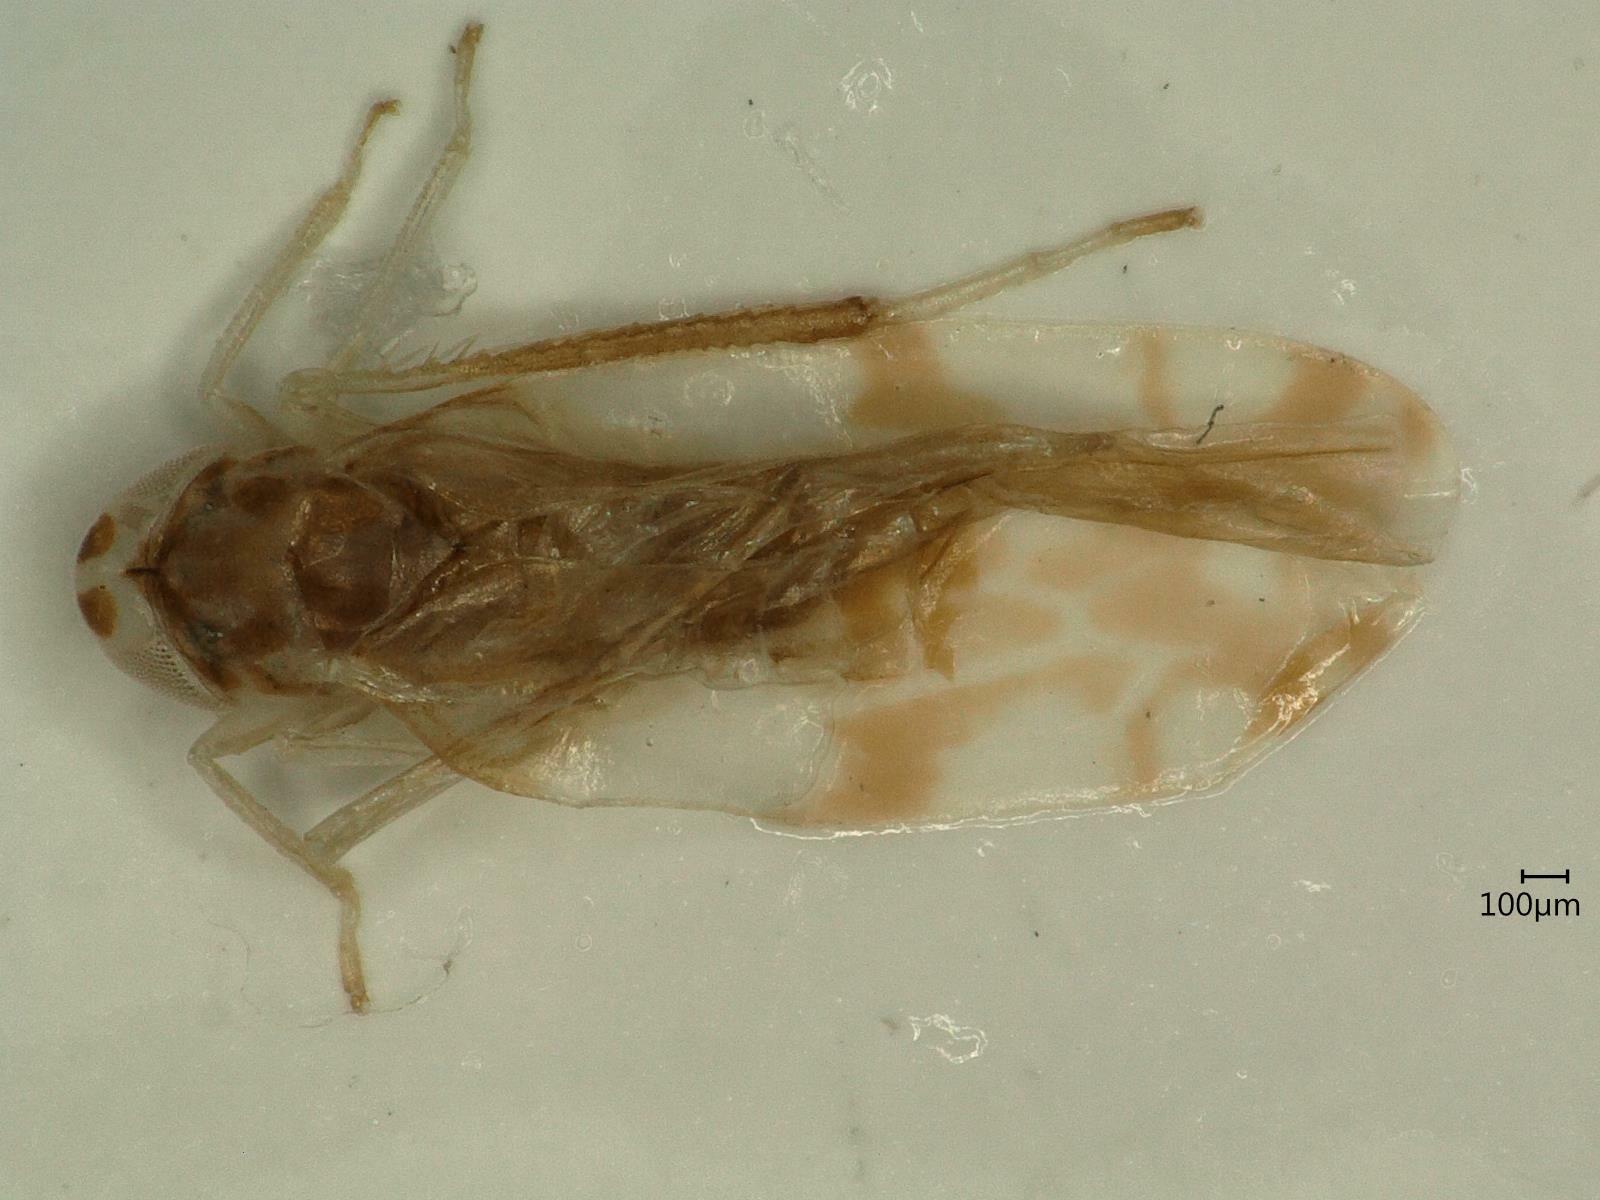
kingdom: Animalia
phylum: Arthropoda
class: Insecta
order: Hemiptera
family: Cicadellidae
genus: Eupteryx
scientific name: Eupteryx urticae
